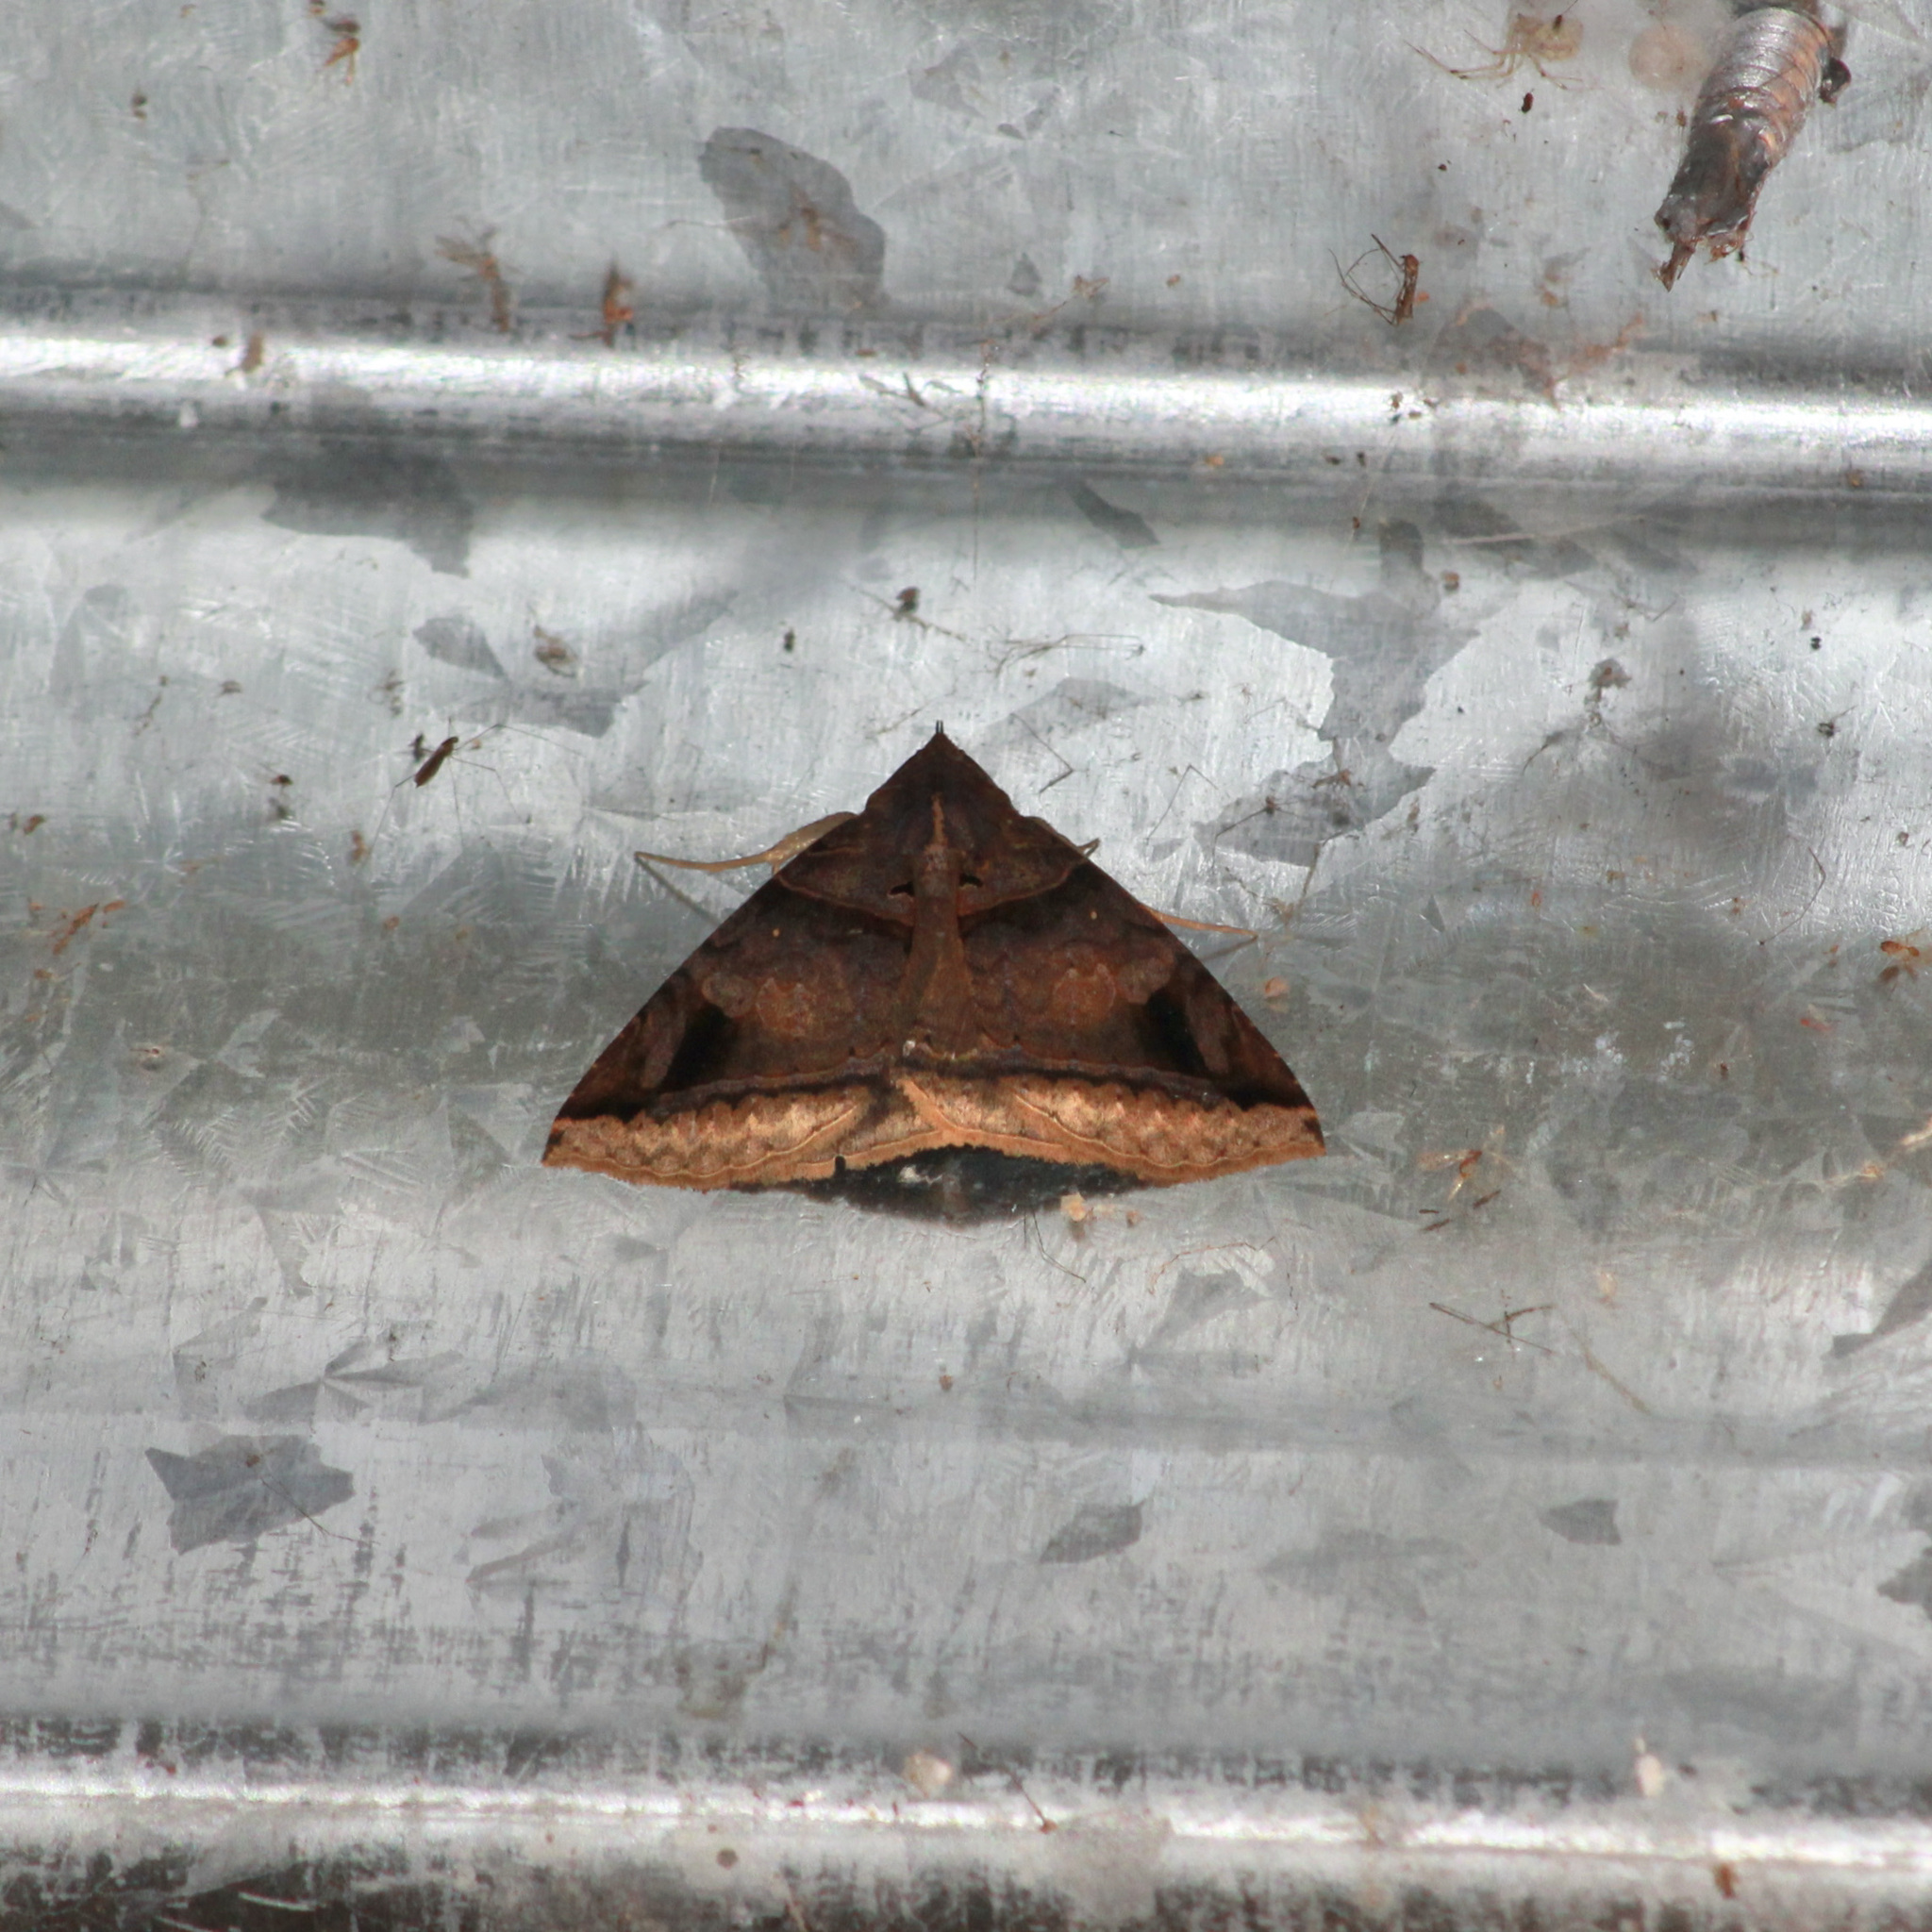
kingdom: Animalia
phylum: Arthropoda
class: Insecta
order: Lepidoptera
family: Erebidae
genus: Celiptera
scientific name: Celiptera levina
